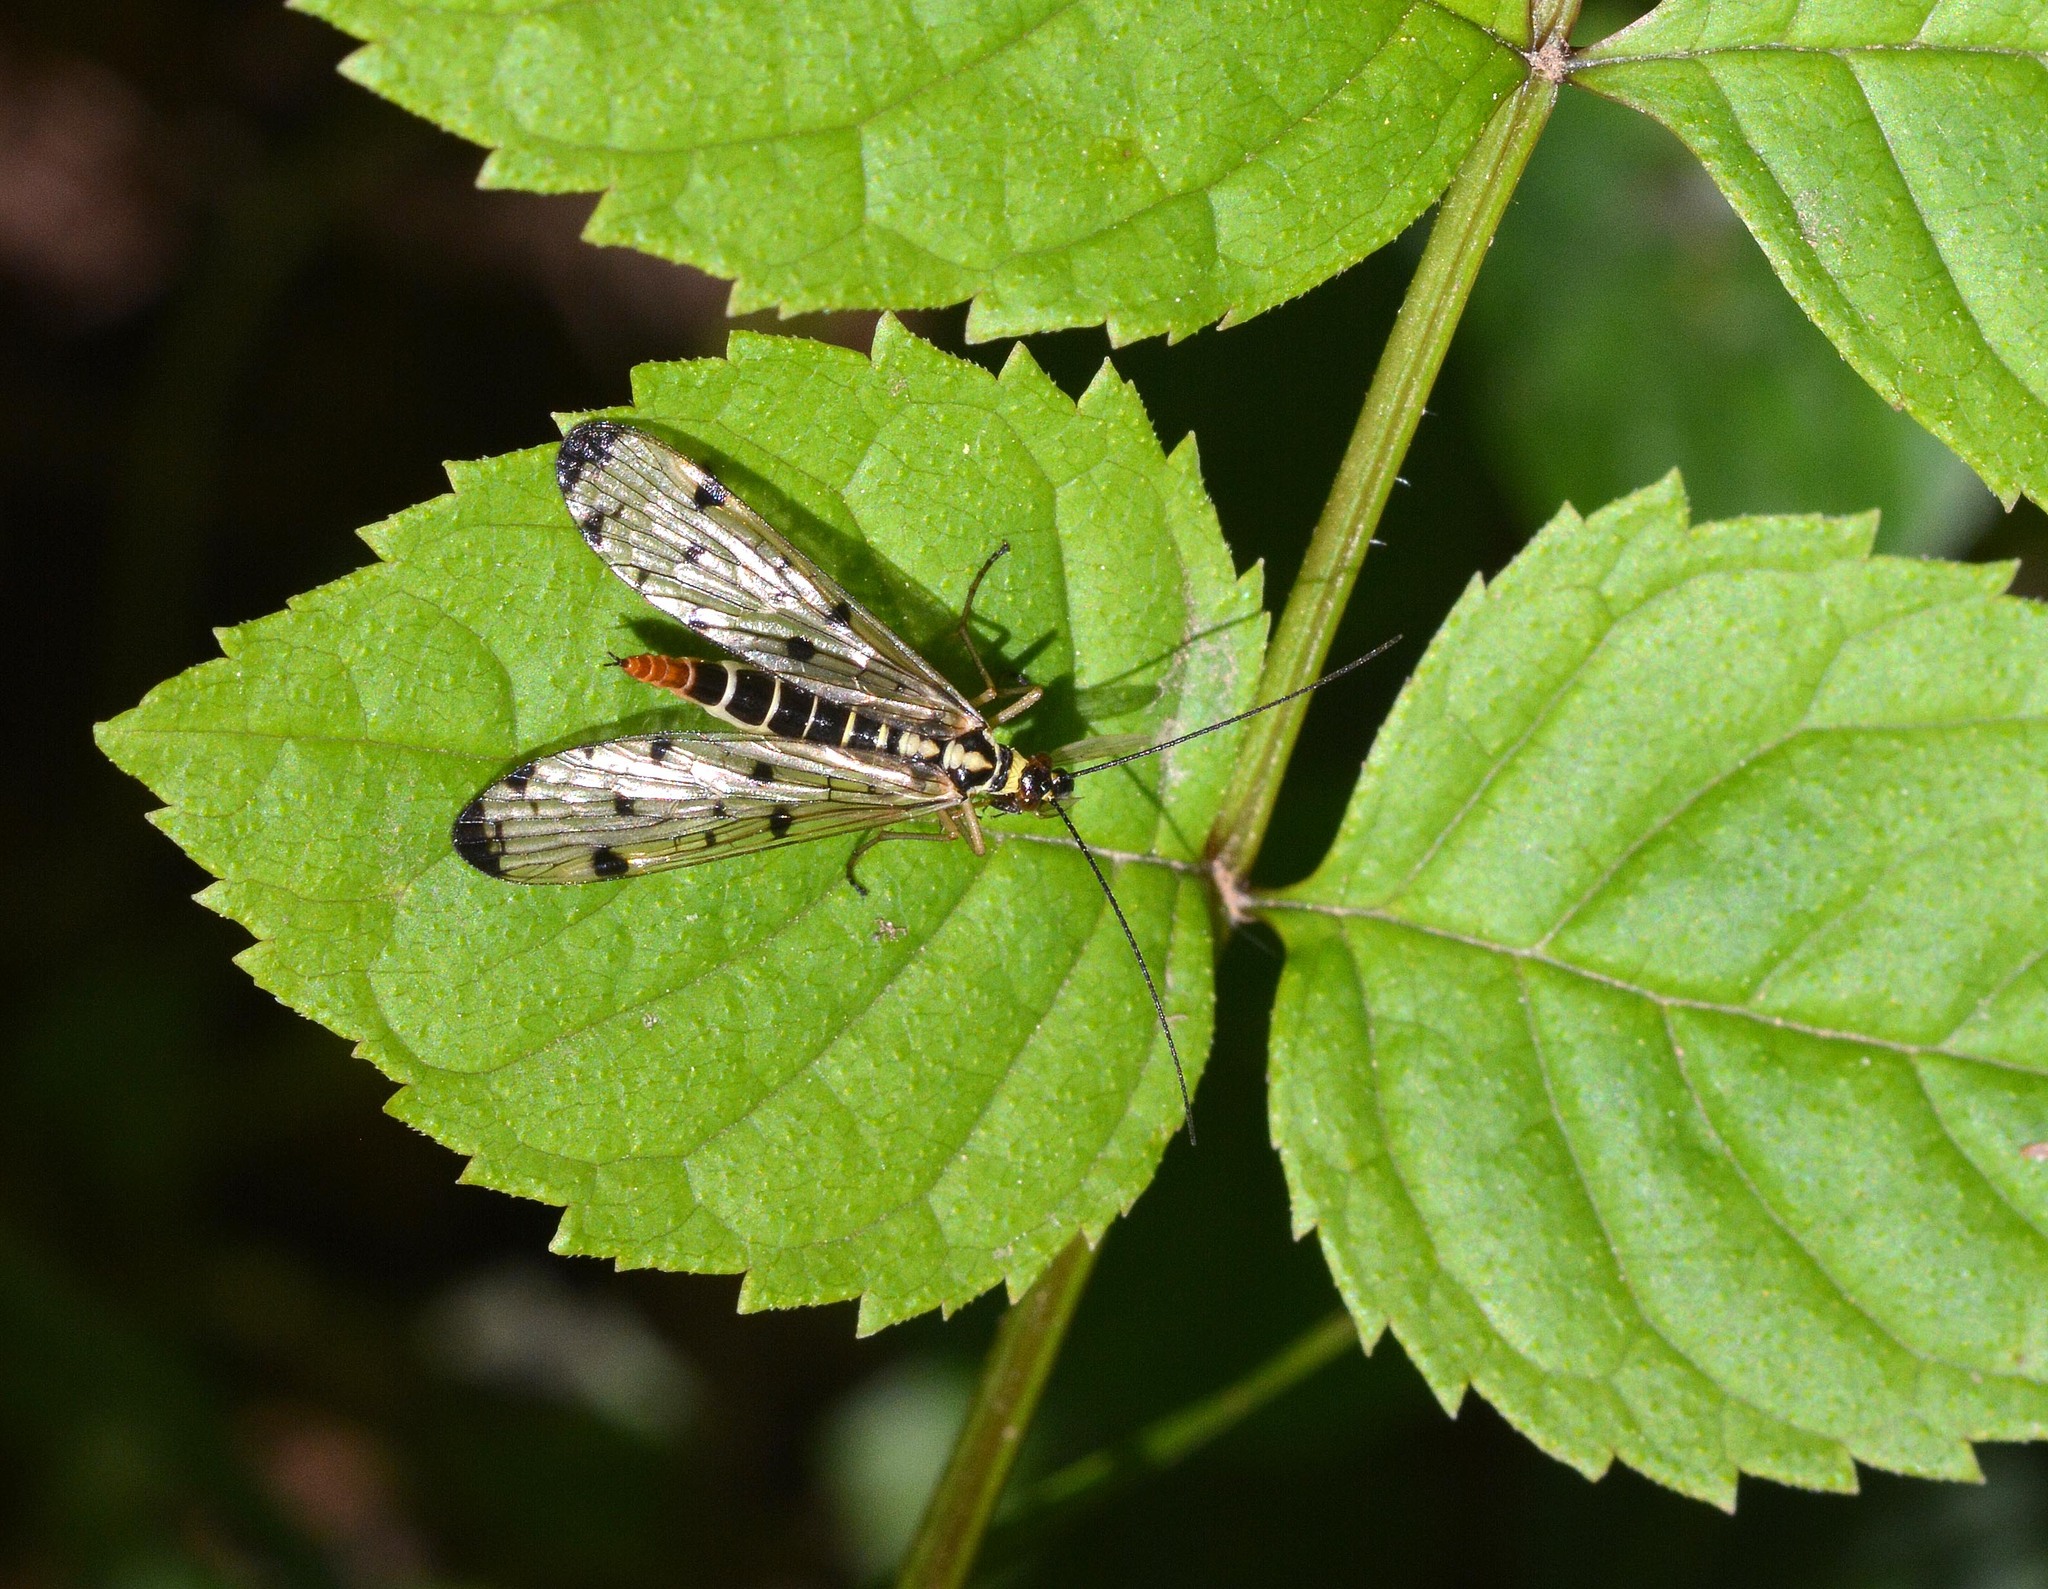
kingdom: Animalia
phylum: Arthropoda
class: Insecta
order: Mecoptera
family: Panorpidae
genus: Panorpa
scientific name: Panorpa germanica
